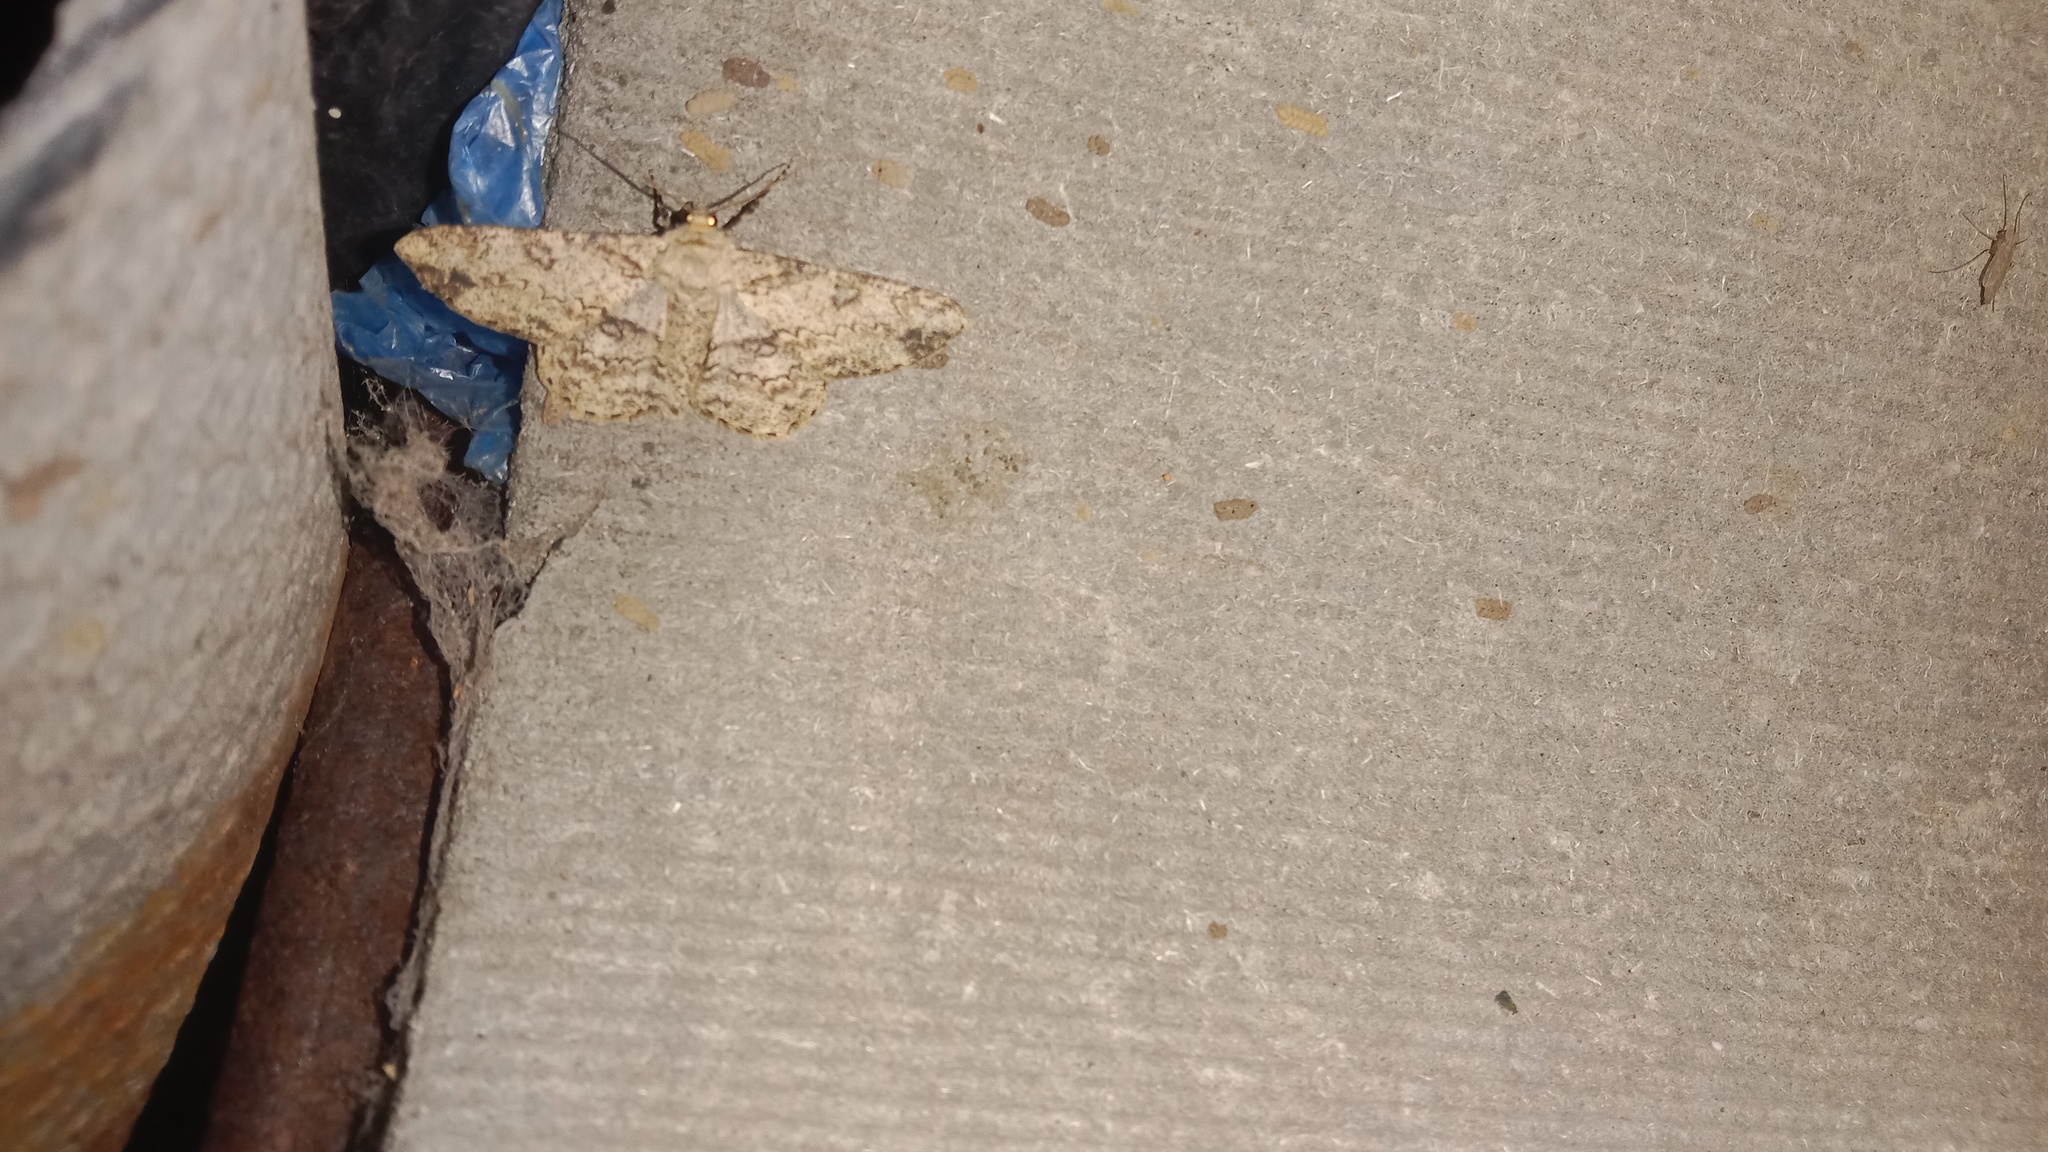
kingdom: Animalia
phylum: Arthropoda
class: Insecta
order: Lepidoptera
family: Geometridae
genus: Ascotis
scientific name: Ascotis selenaria
